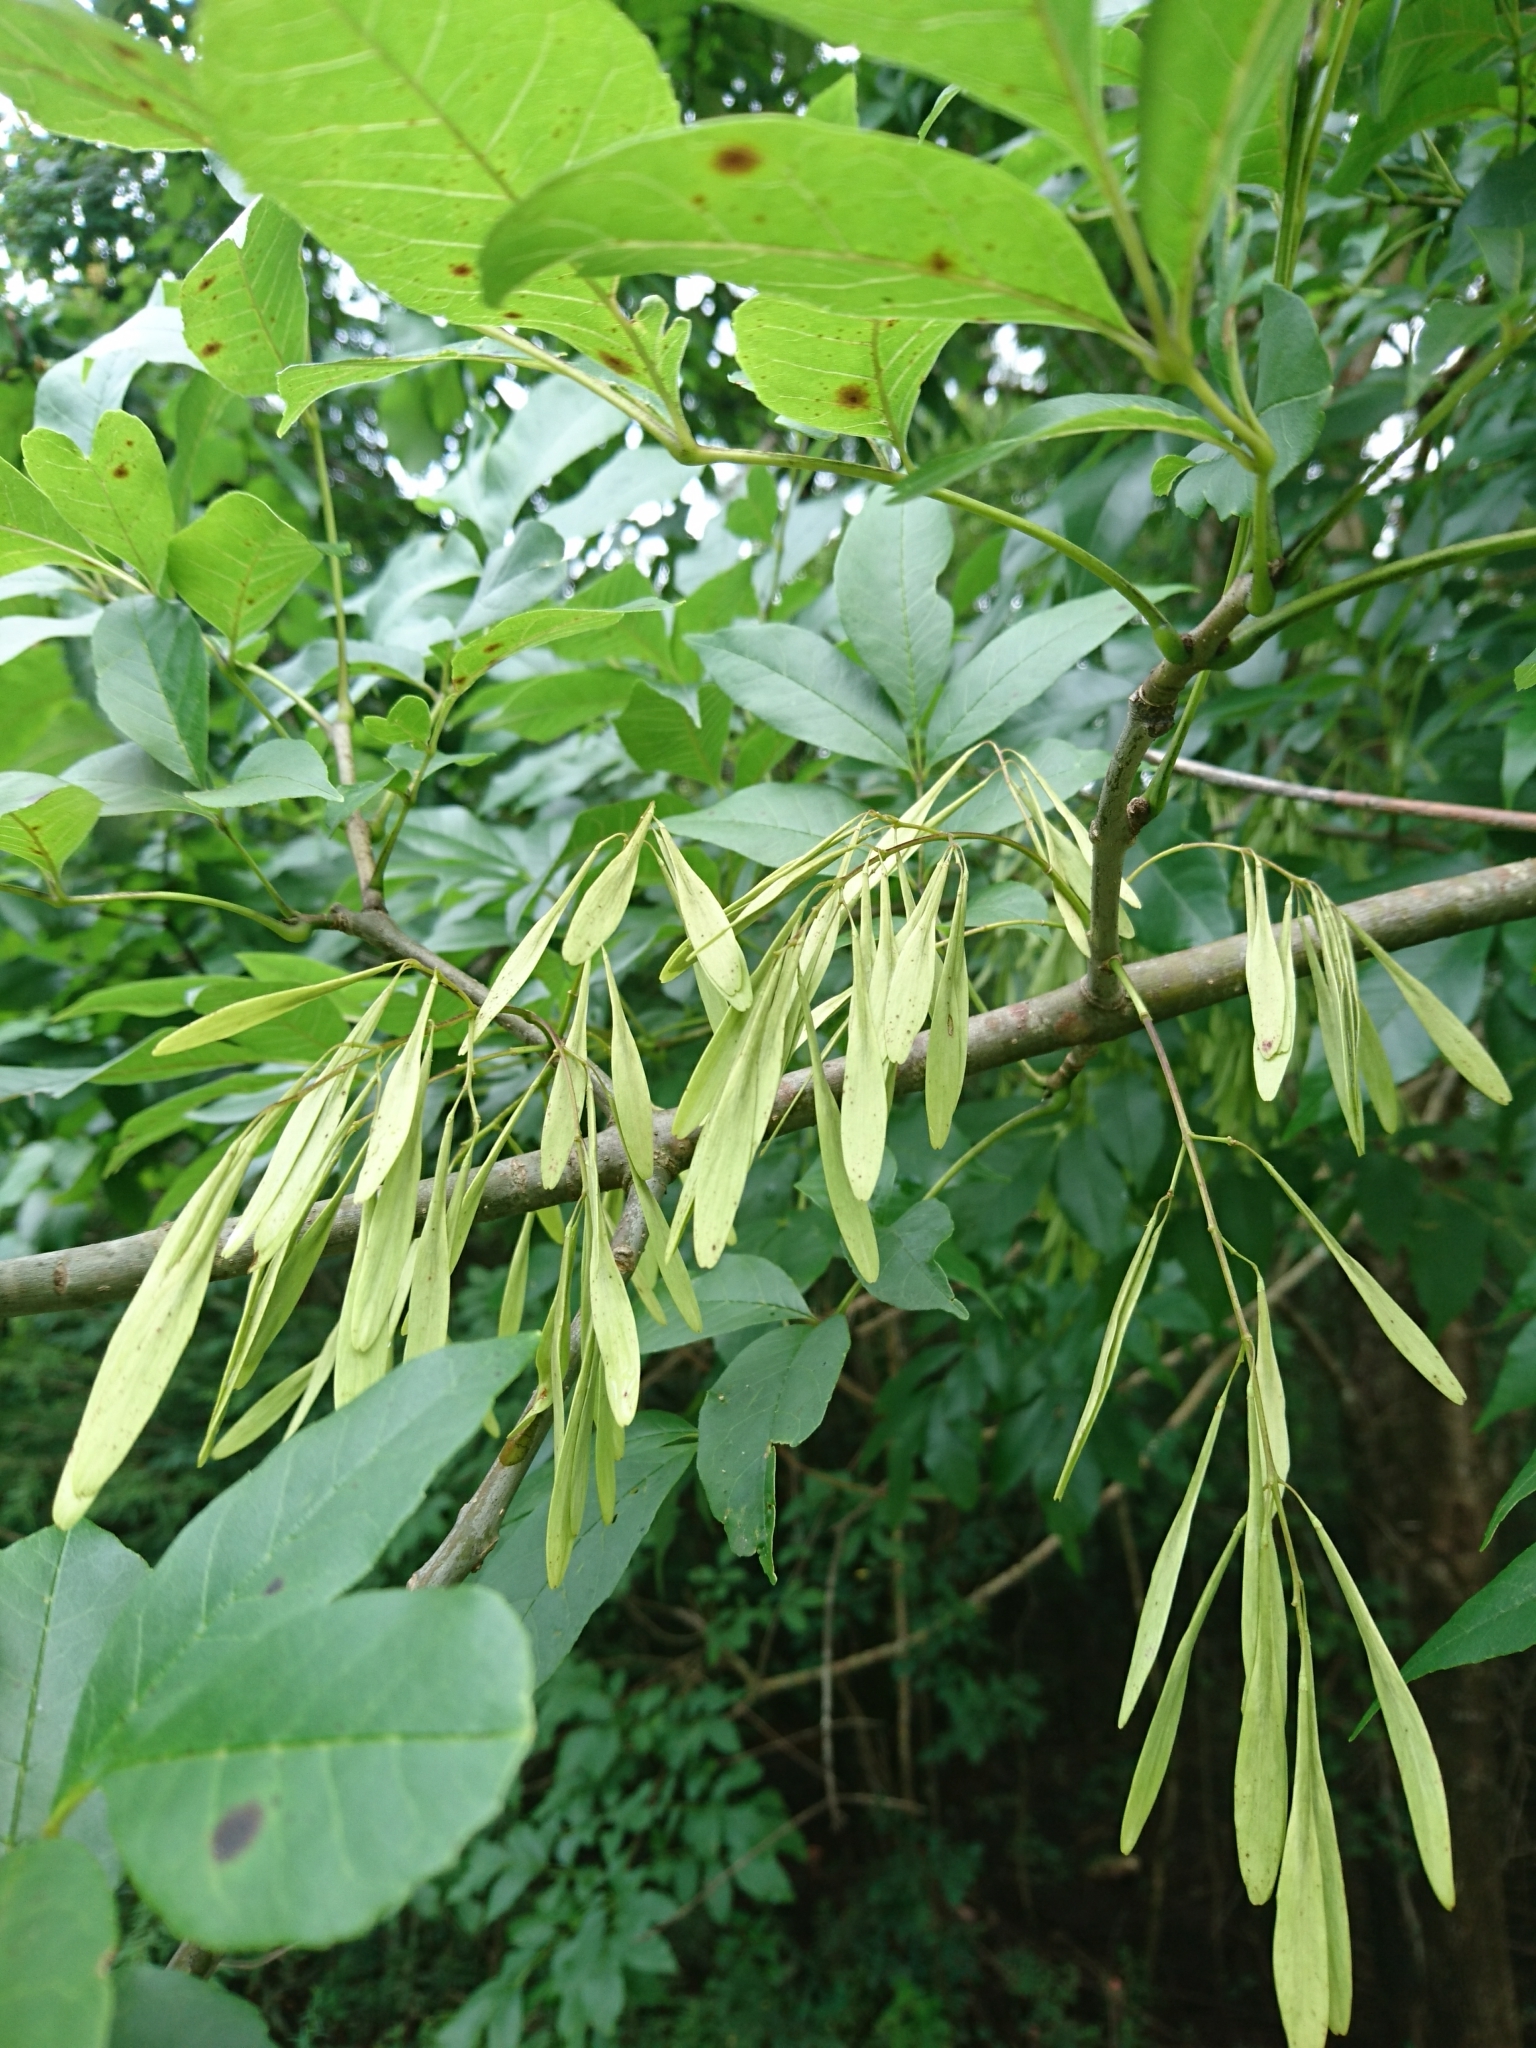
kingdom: Plantae
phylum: Tracheophyta
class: Magnoliopsida
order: Lamiales
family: Oleaceae
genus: Fraxinus
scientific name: Fraxinus pennsylvanica
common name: Green ash
